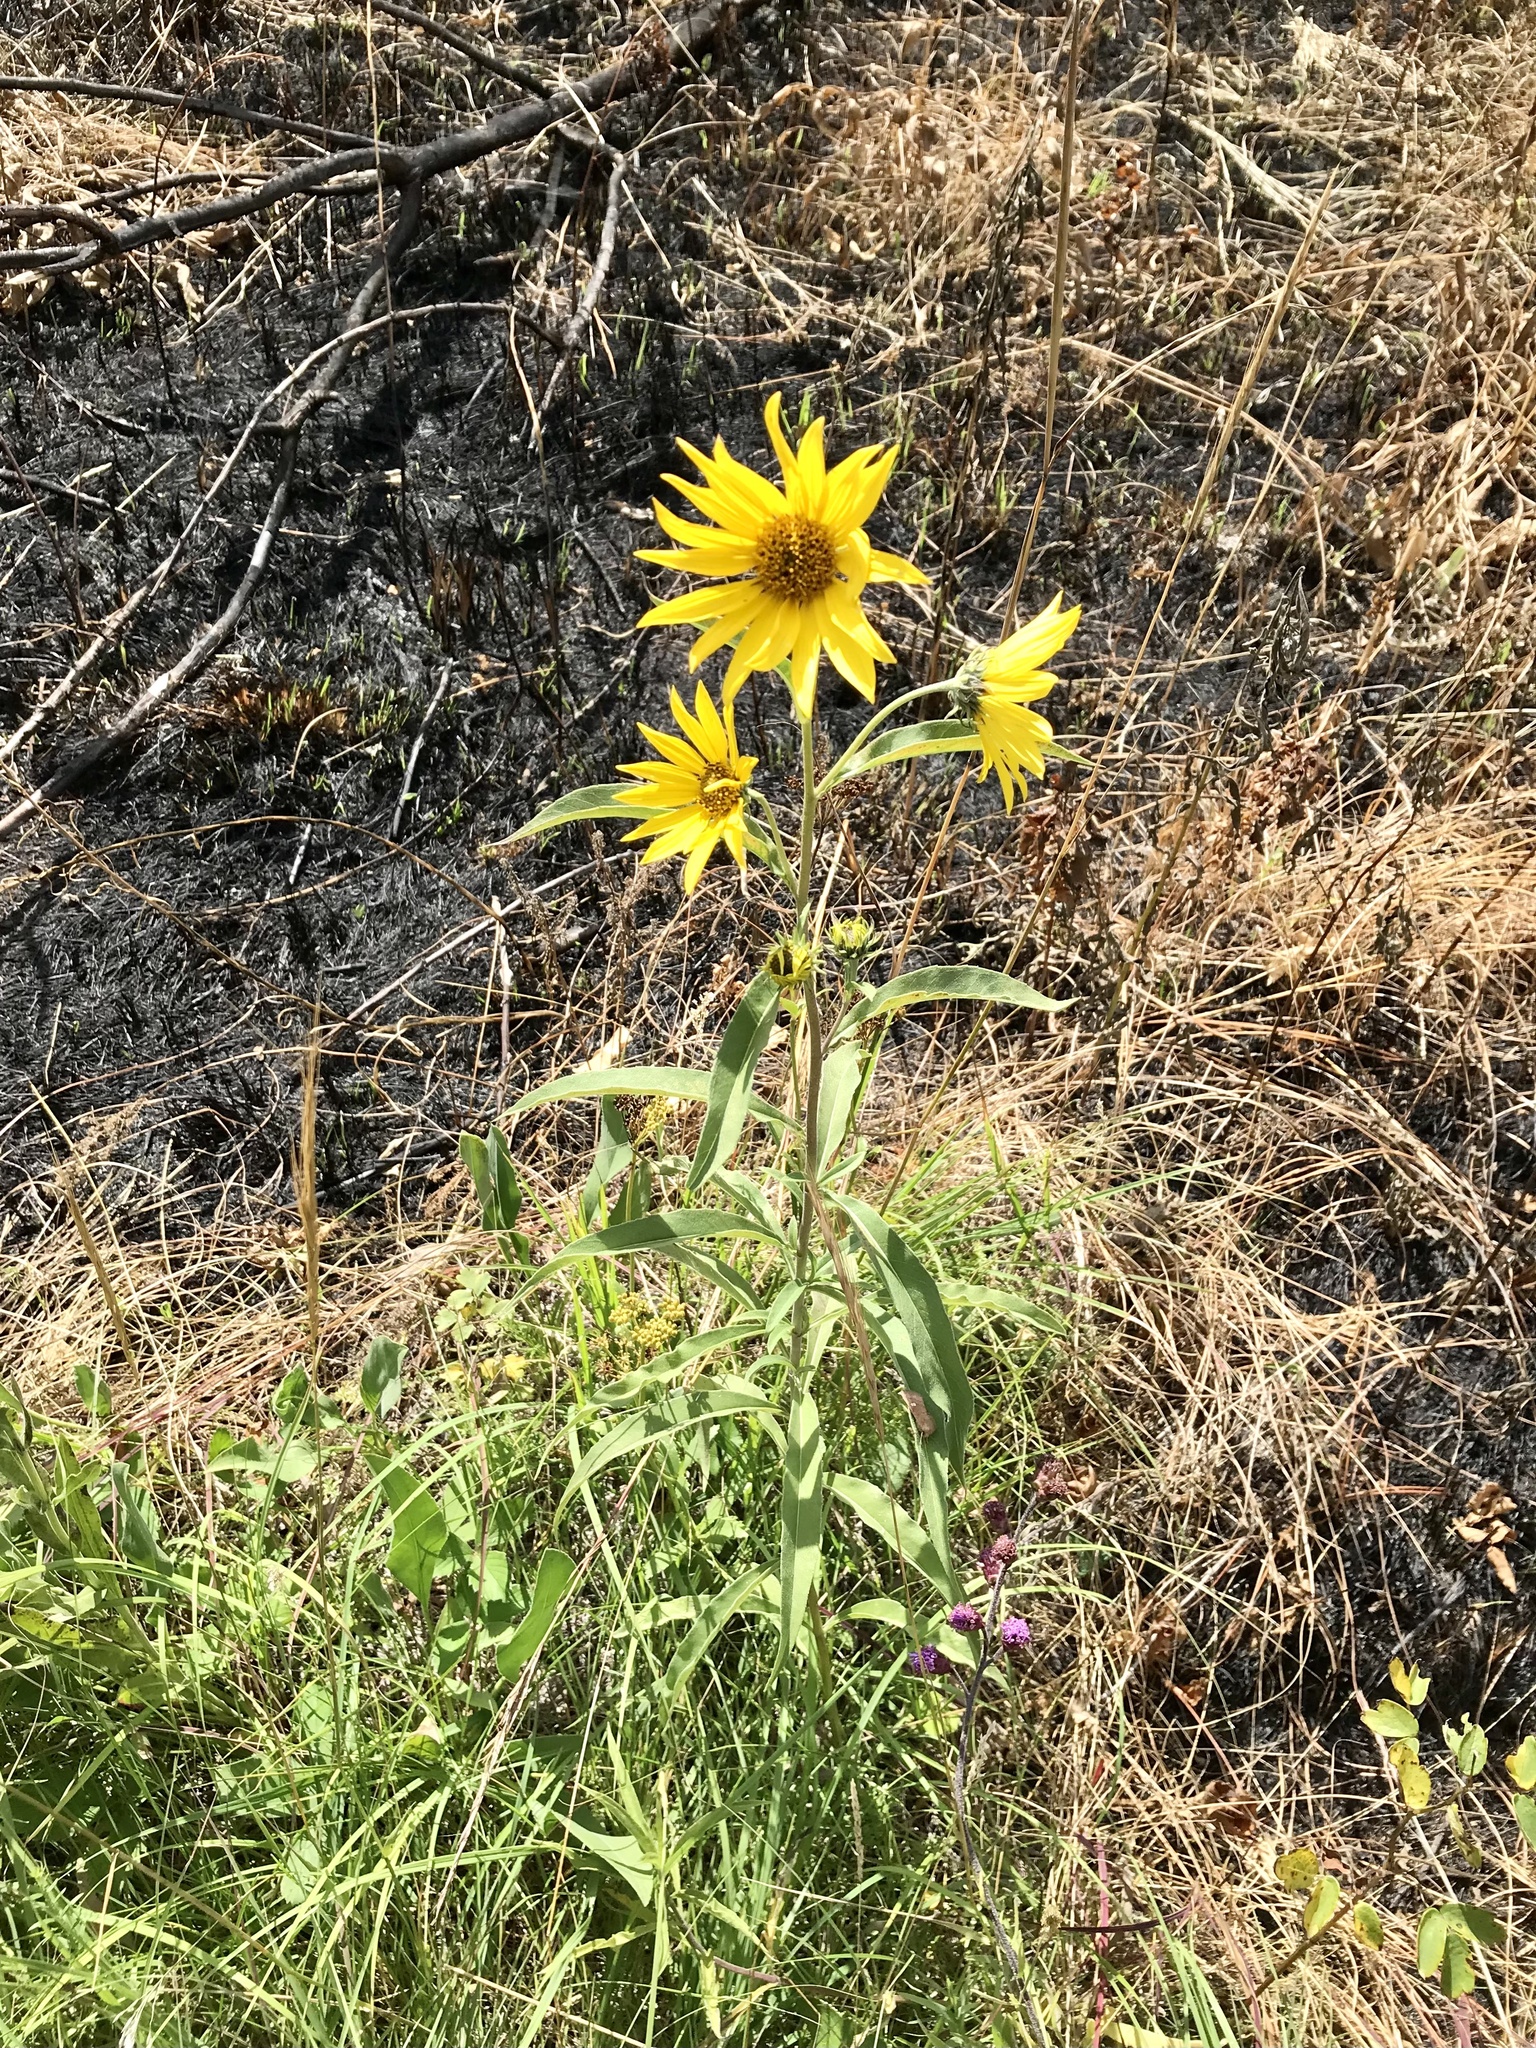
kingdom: Plantae
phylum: Tracheophyta
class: Magnoliopsida
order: Asterales
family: Asteraceae
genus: Helianthus
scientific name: Helianthus maximiliani
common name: Maximilian's sunflower
